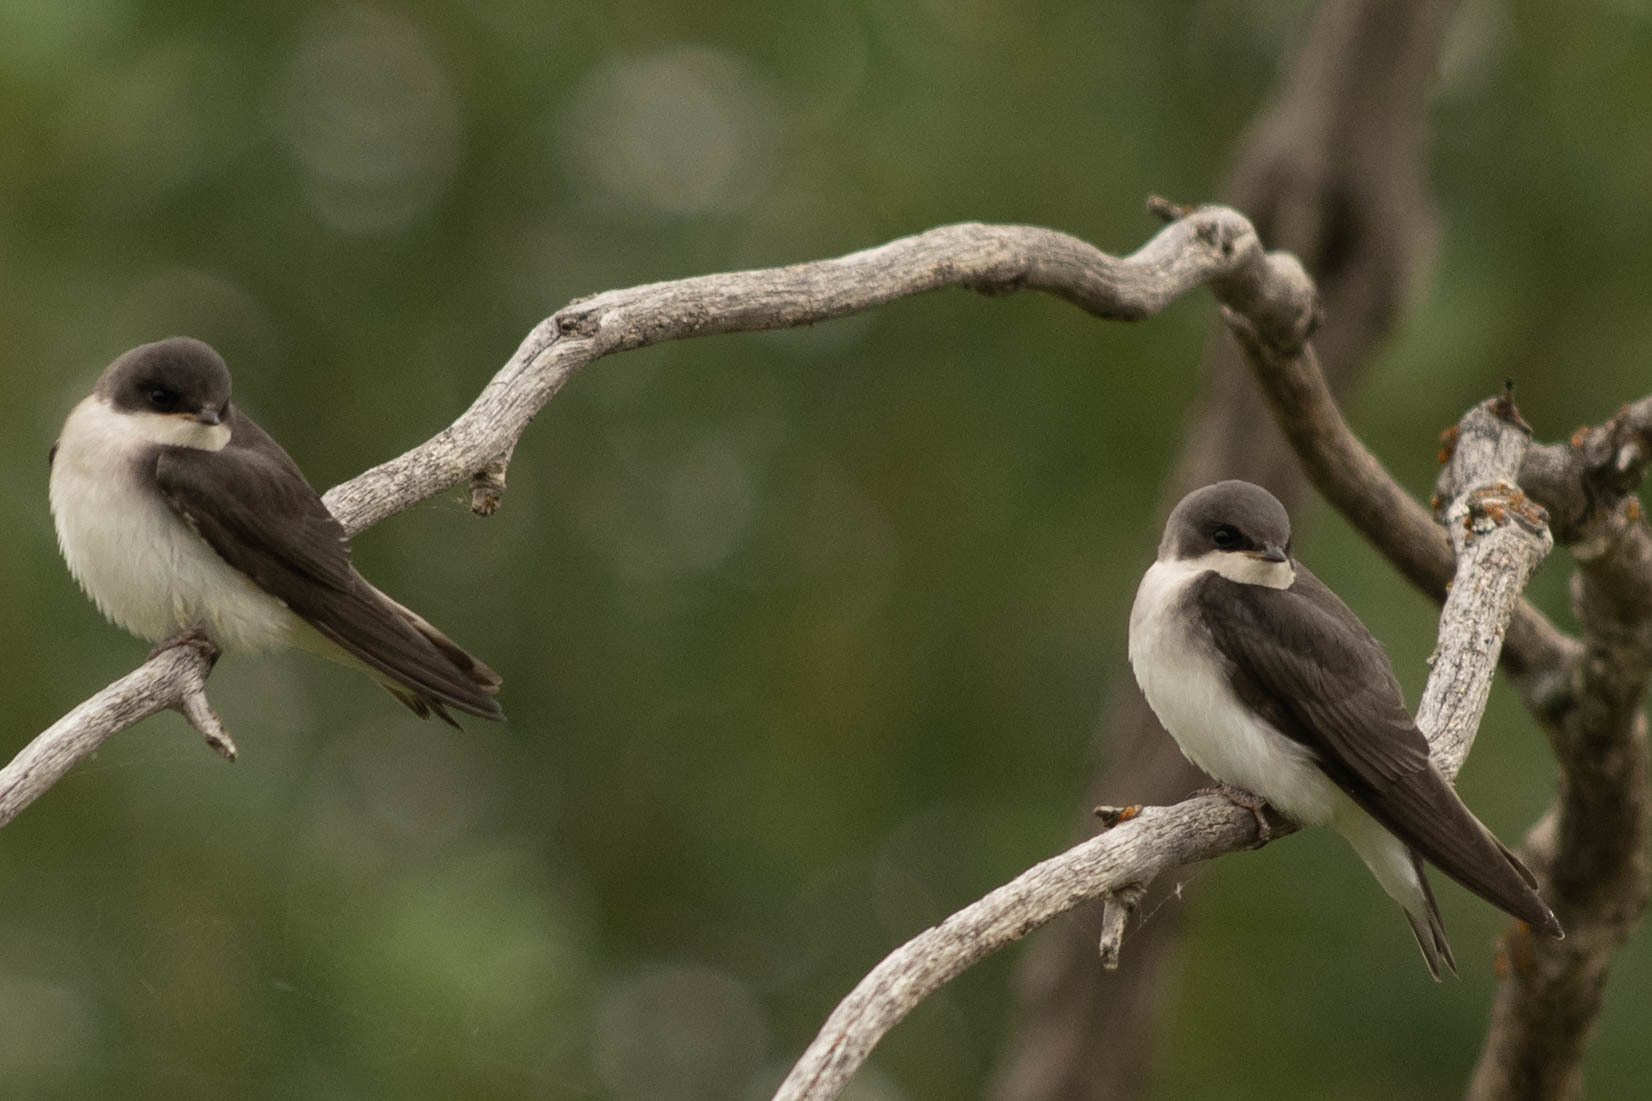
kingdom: Animalia
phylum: Chordata
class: Aves
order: Passeriformes
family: Hirundinidae
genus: Tachycineta
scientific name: Tachycineta bicolor
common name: Tree swallow
